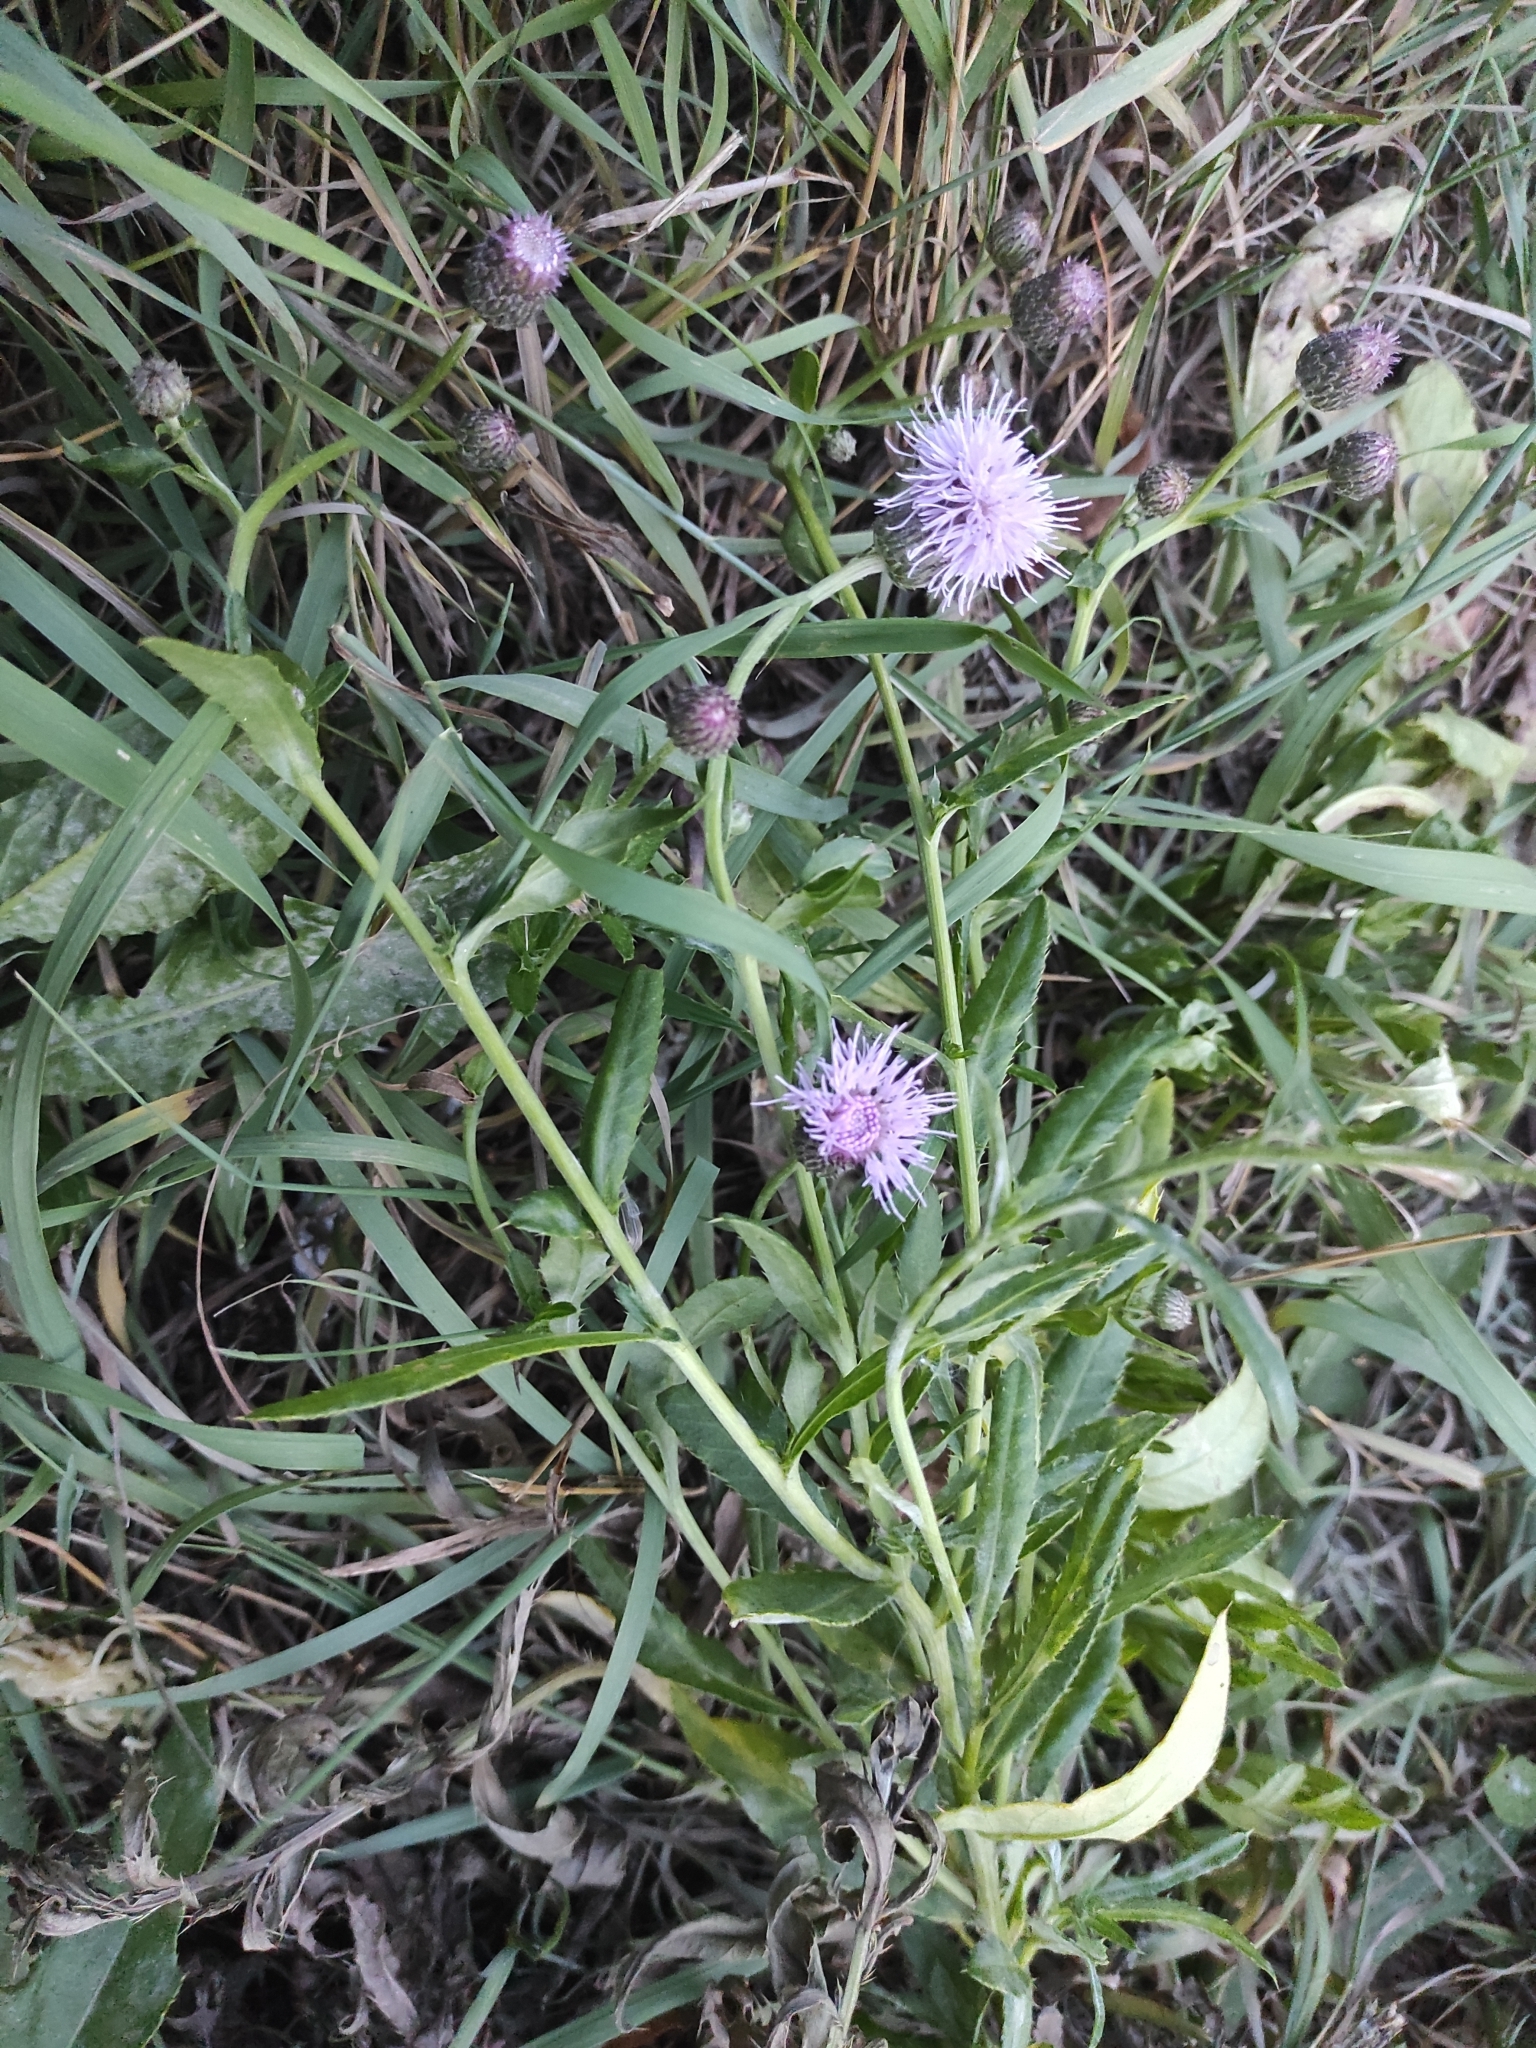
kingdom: Plantae
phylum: Tracheophyta
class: Magnoliopsida
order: Asterales
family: Asteraceae
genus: Cirsium
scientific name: Cirsium arvense
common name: Creeping thistle
